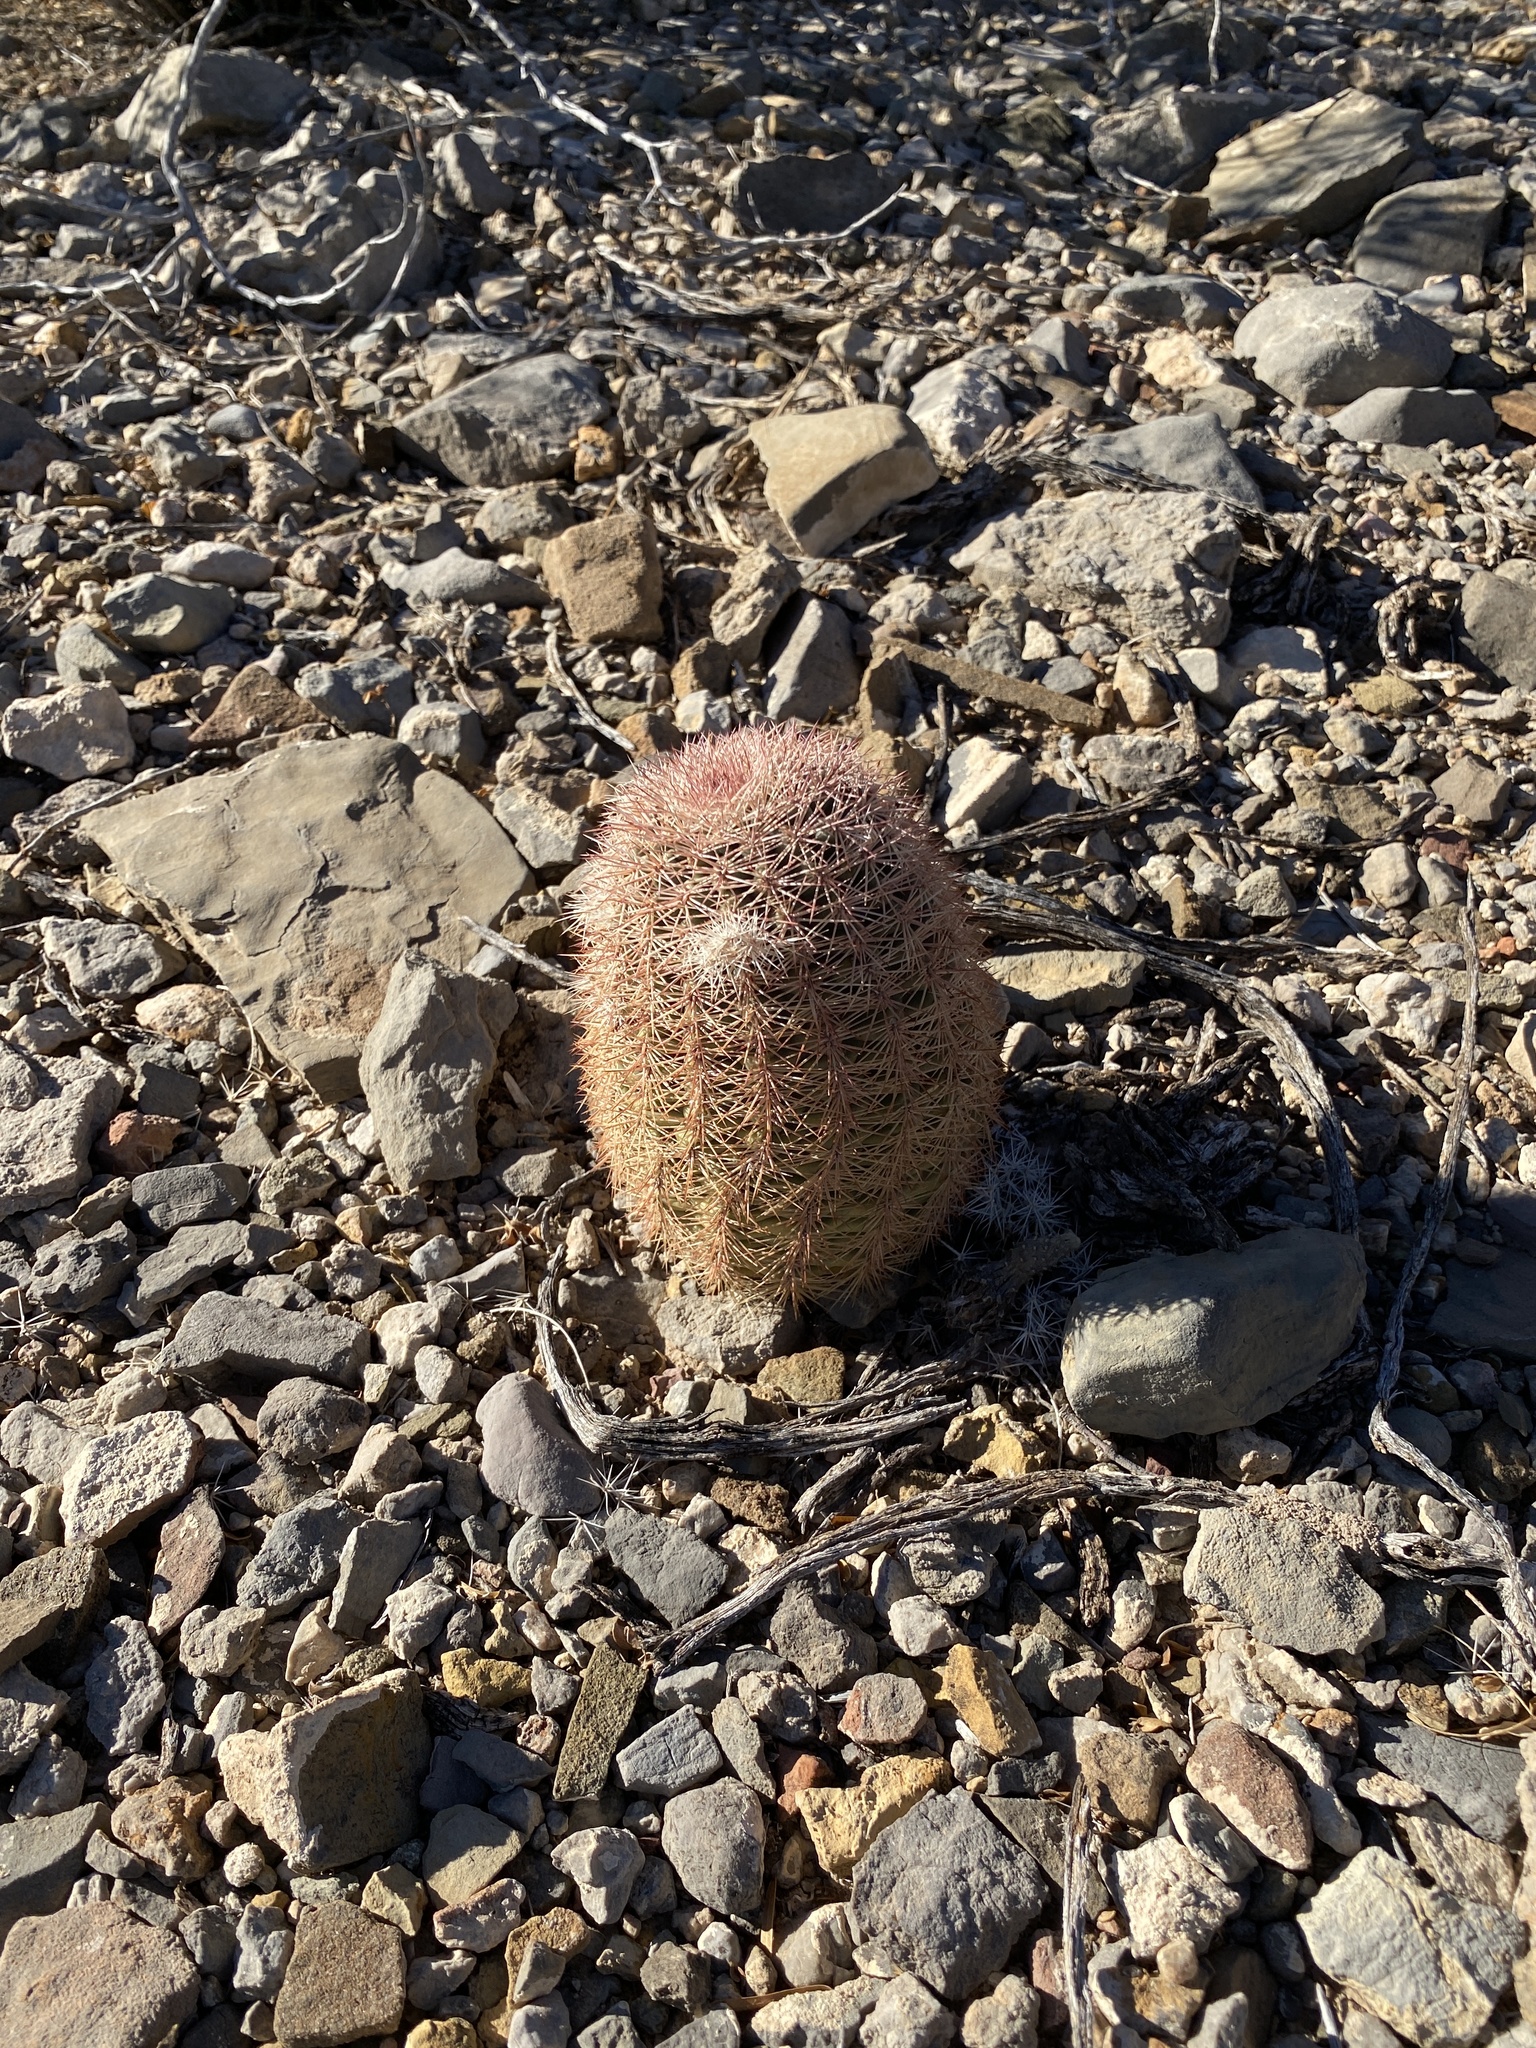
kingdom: Plantae
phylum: Tracheophyta
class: Magnoliopsida
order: Caryophyllales
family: Cactaceae
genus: Echinocereus
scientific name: Echinocereus dasyacanthus
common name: Spiny hedgehog cactus
